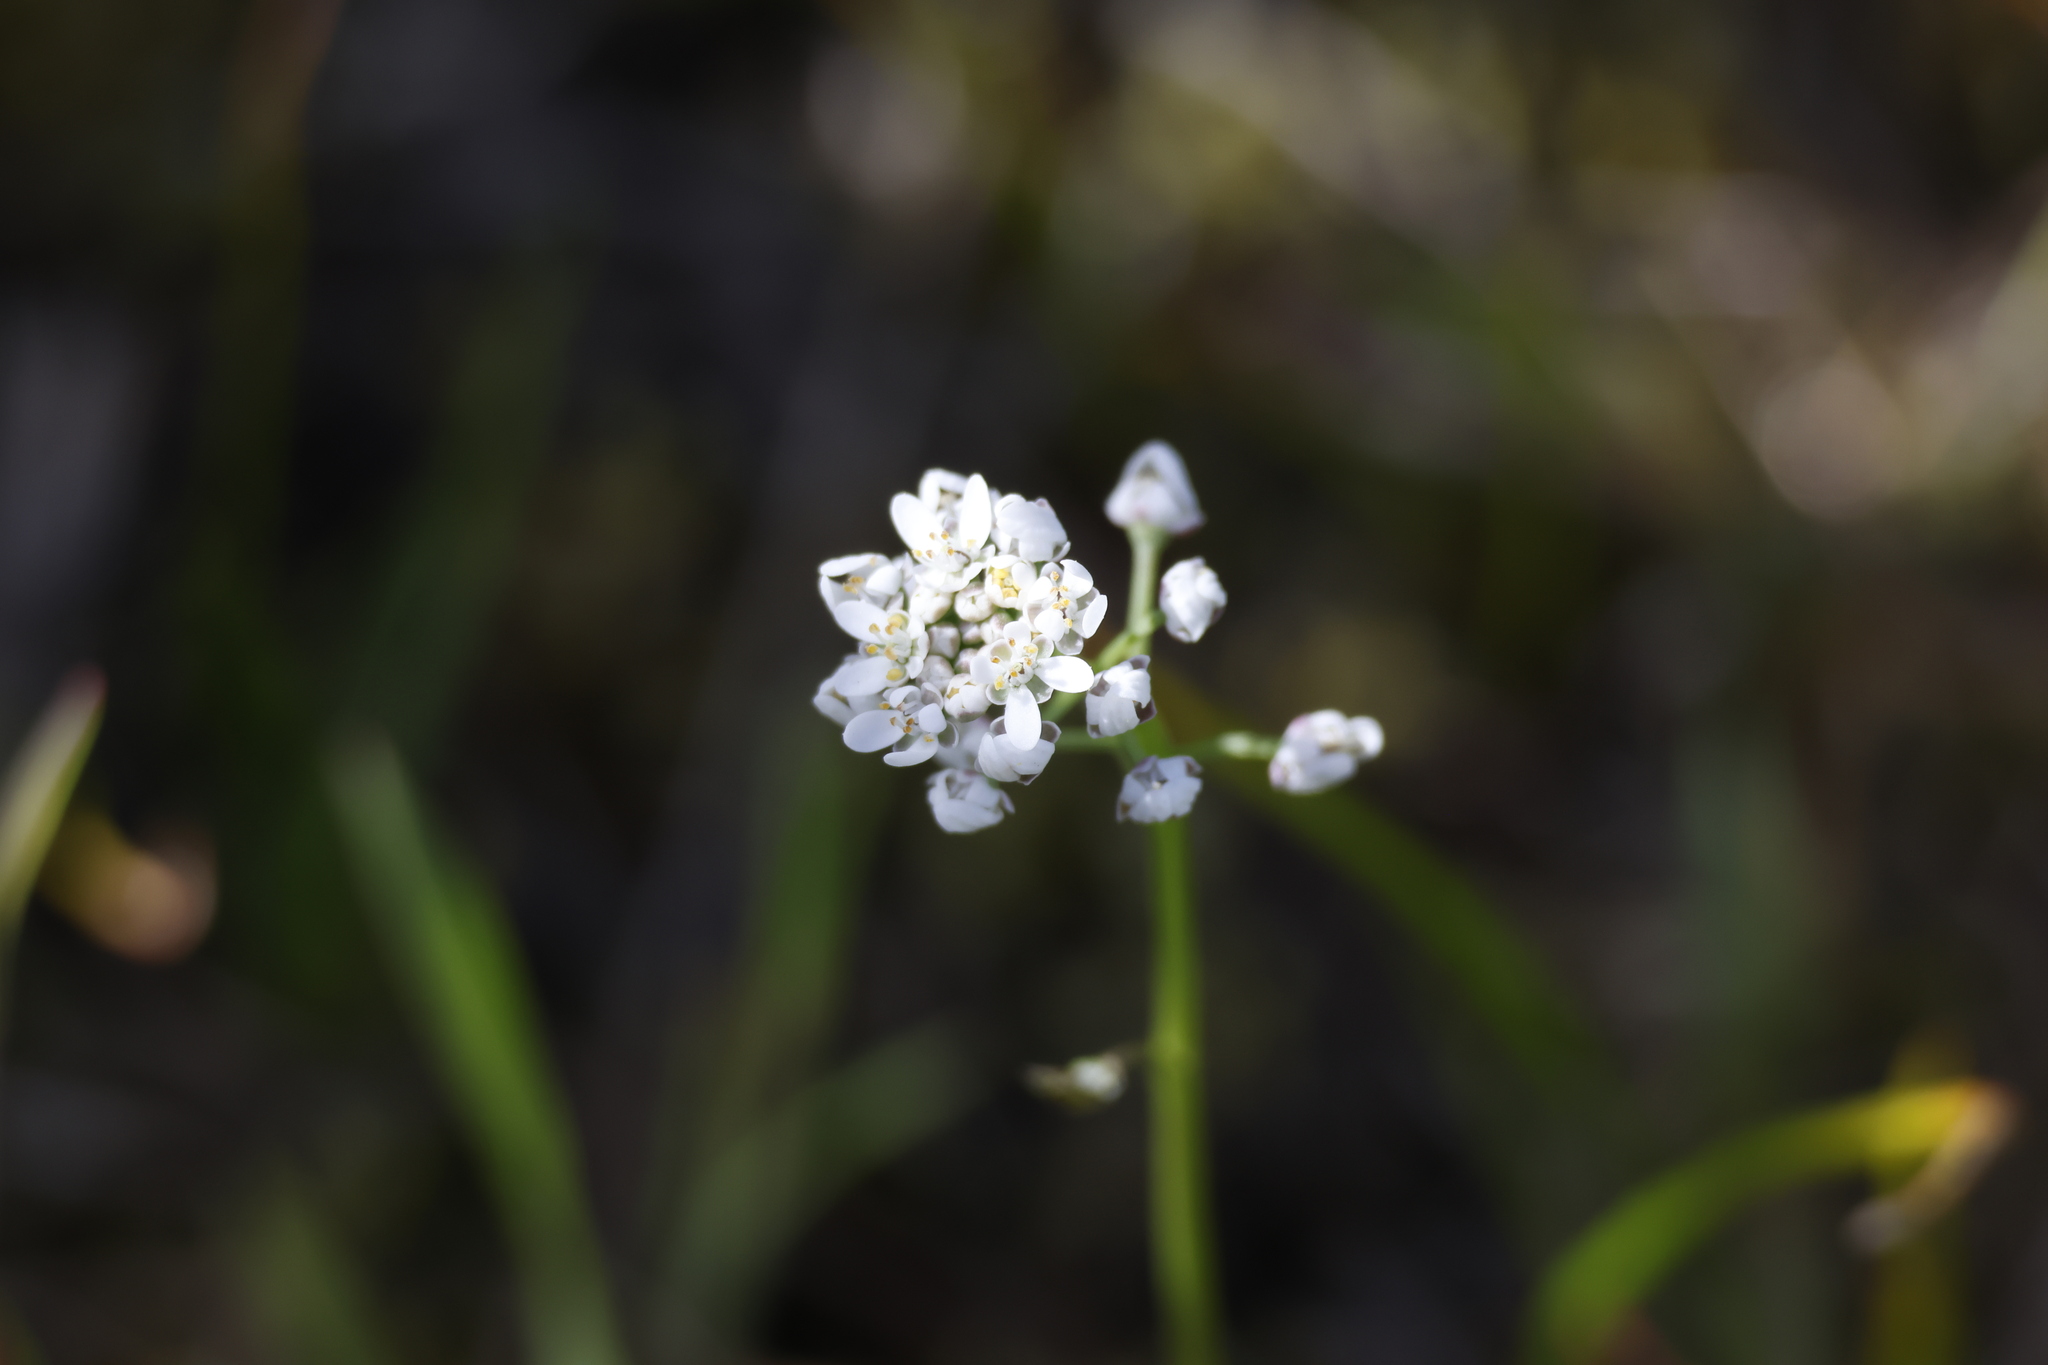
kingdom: Plantae
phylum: Tracheophyta
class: Magnoliopsida
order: Brassicales
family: Brassicaceae
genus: Teesdalia
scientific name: Teesdalia nudicaulis
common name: Shepherd's cress
